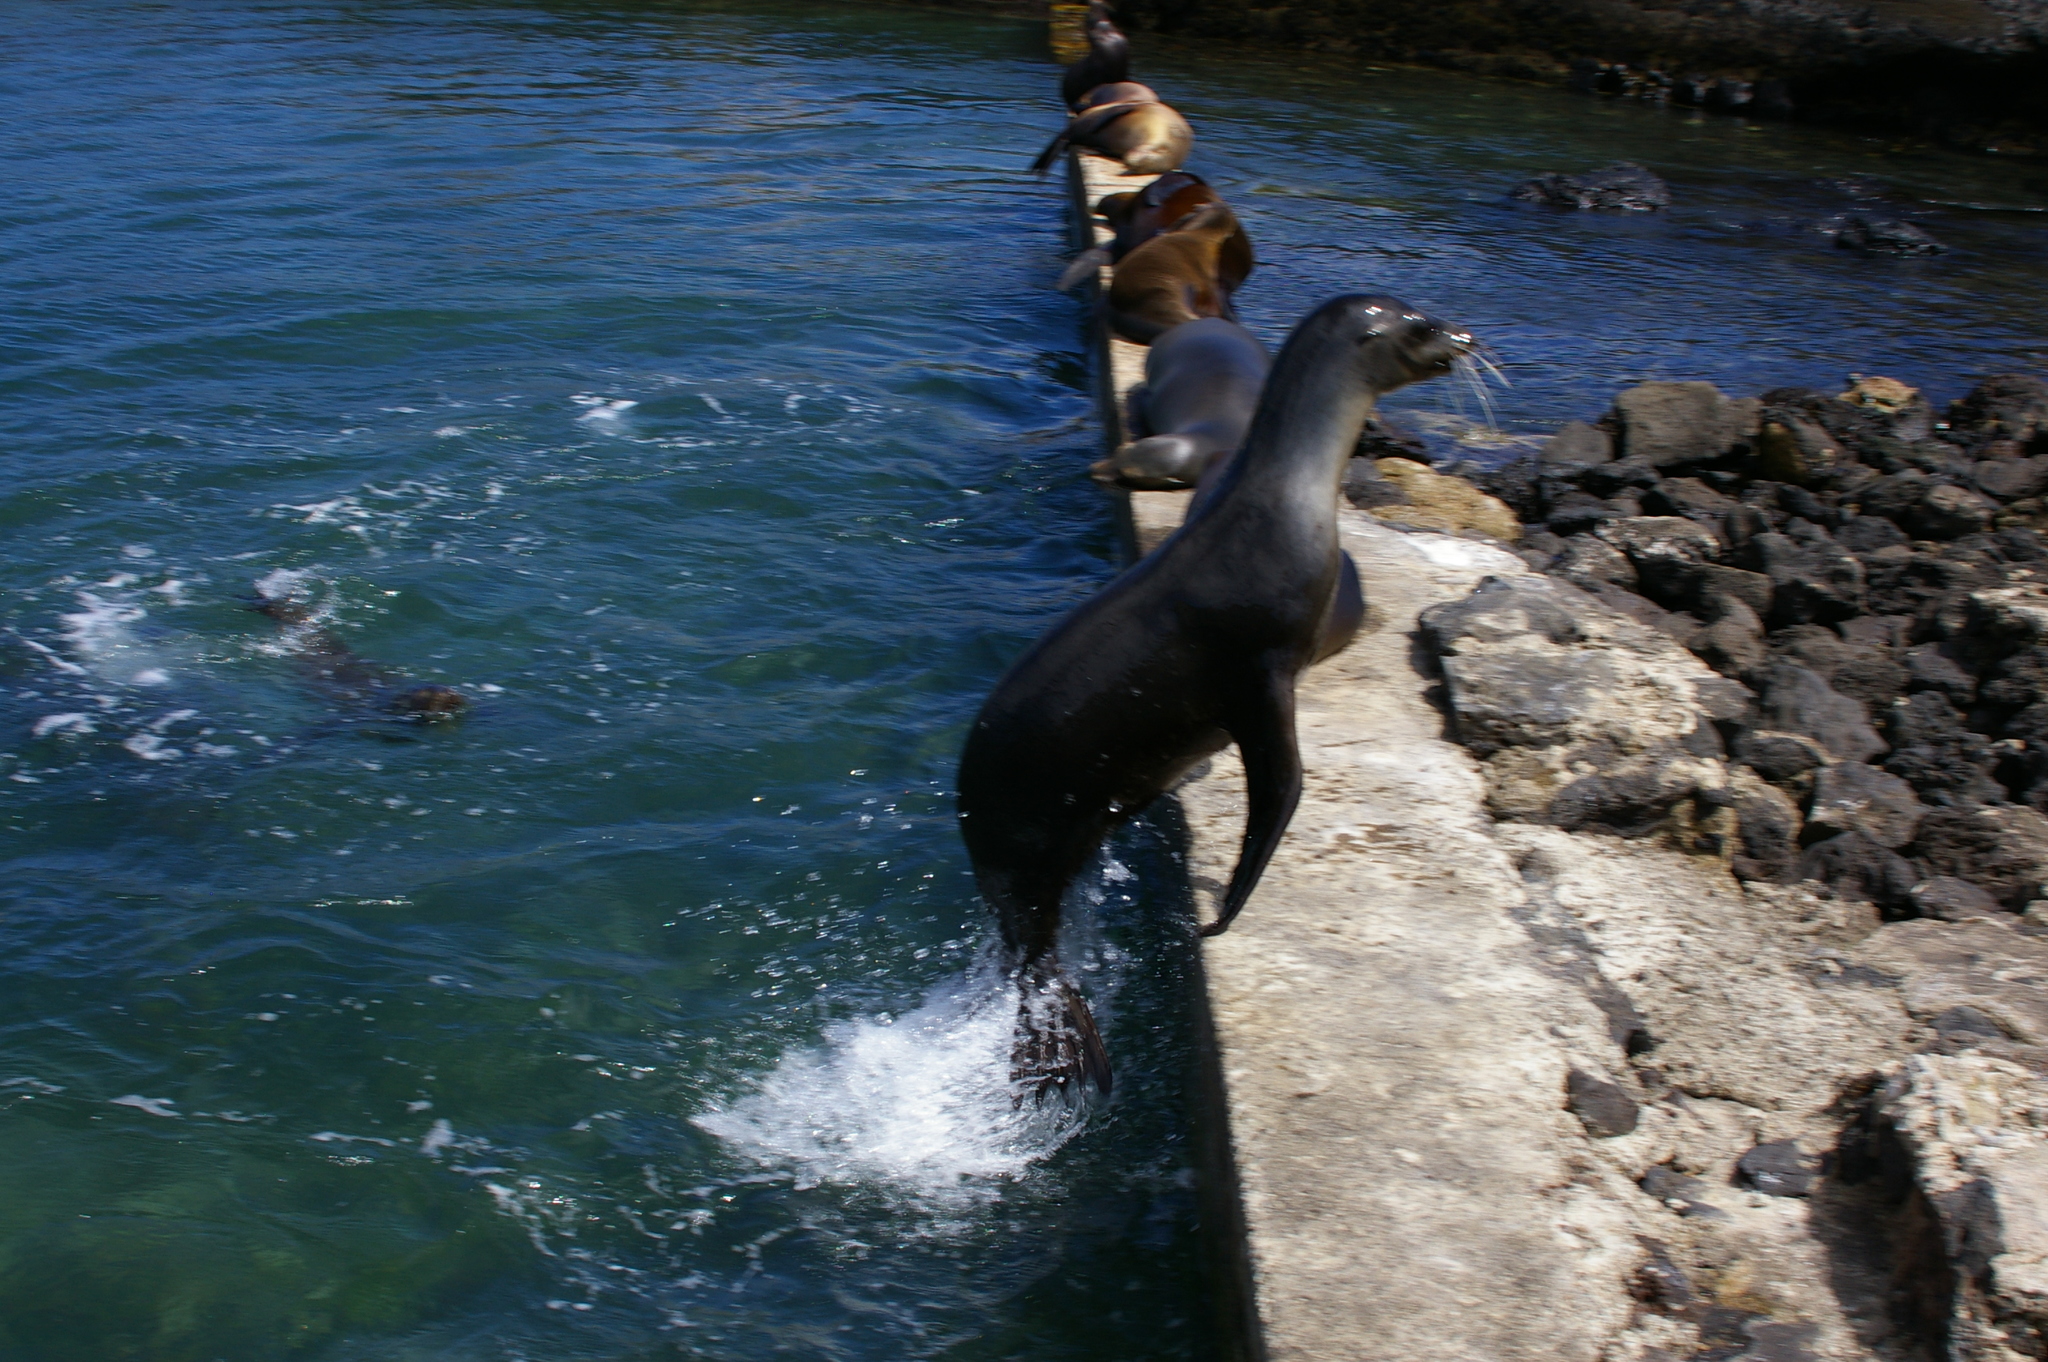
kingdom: Animalia
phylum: Chordata
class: Mammalia
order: Carnivora
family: Otariidae
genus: Zalophus
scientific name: Zalophus wollebaeki
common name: Galapagos sea lion
